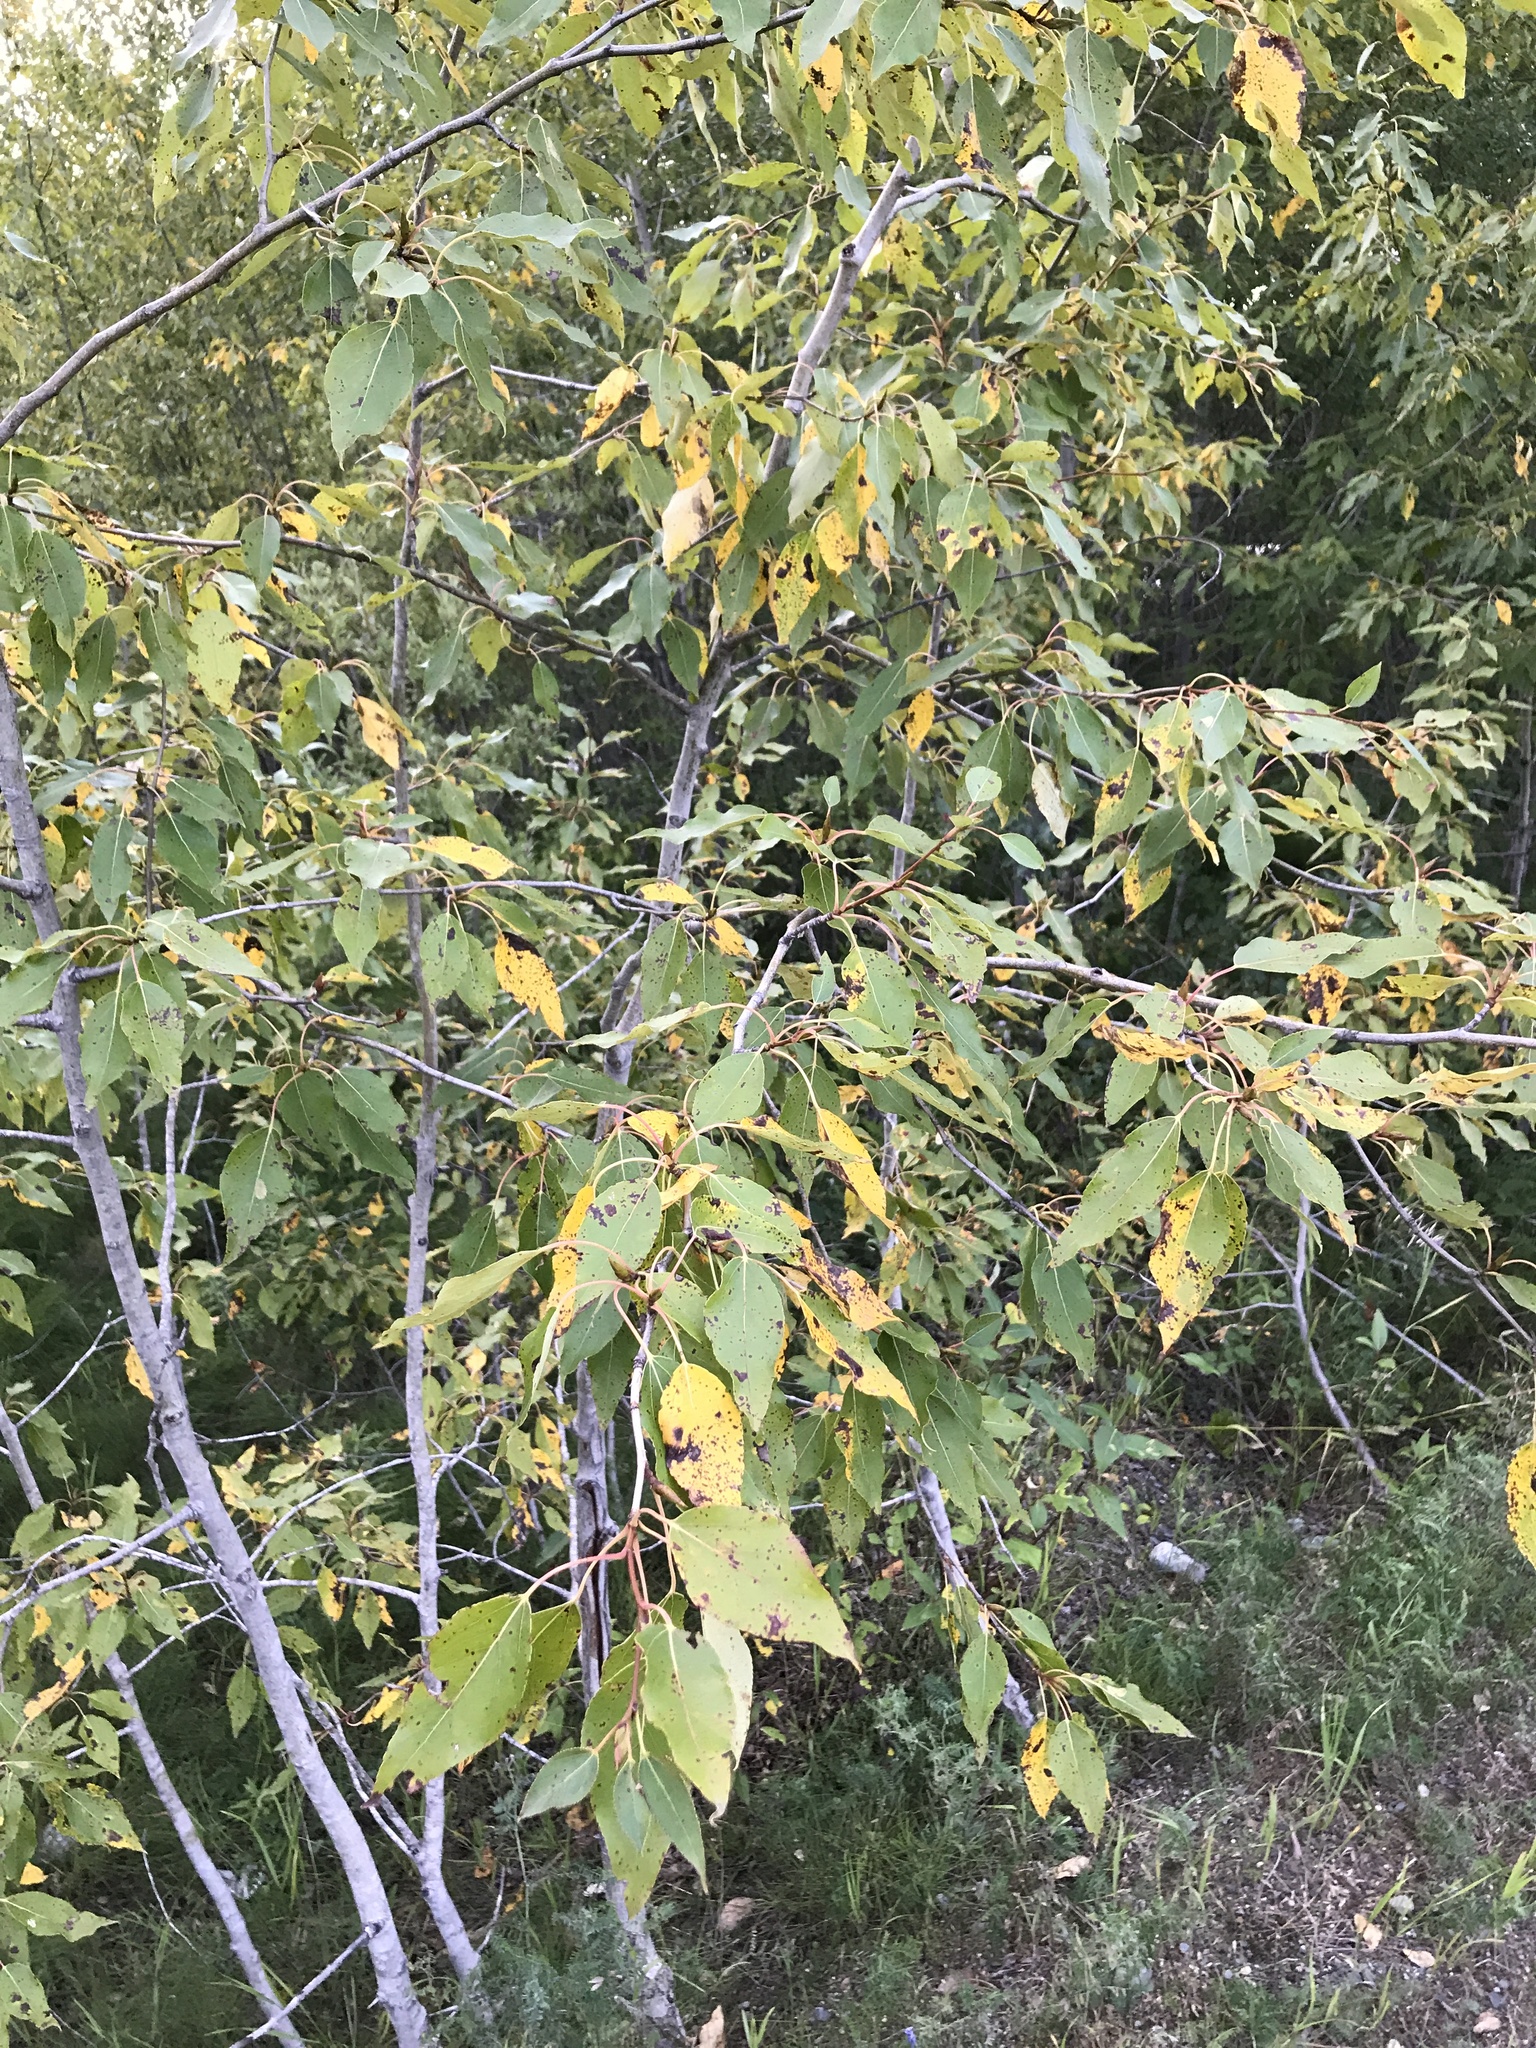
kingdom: Plantae
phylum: Tracheophyta
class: Magnoliopsida
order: Malpighiales
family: Salicaceae
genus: Populus
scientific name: Populus balsamifera
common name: Balsam poplar
